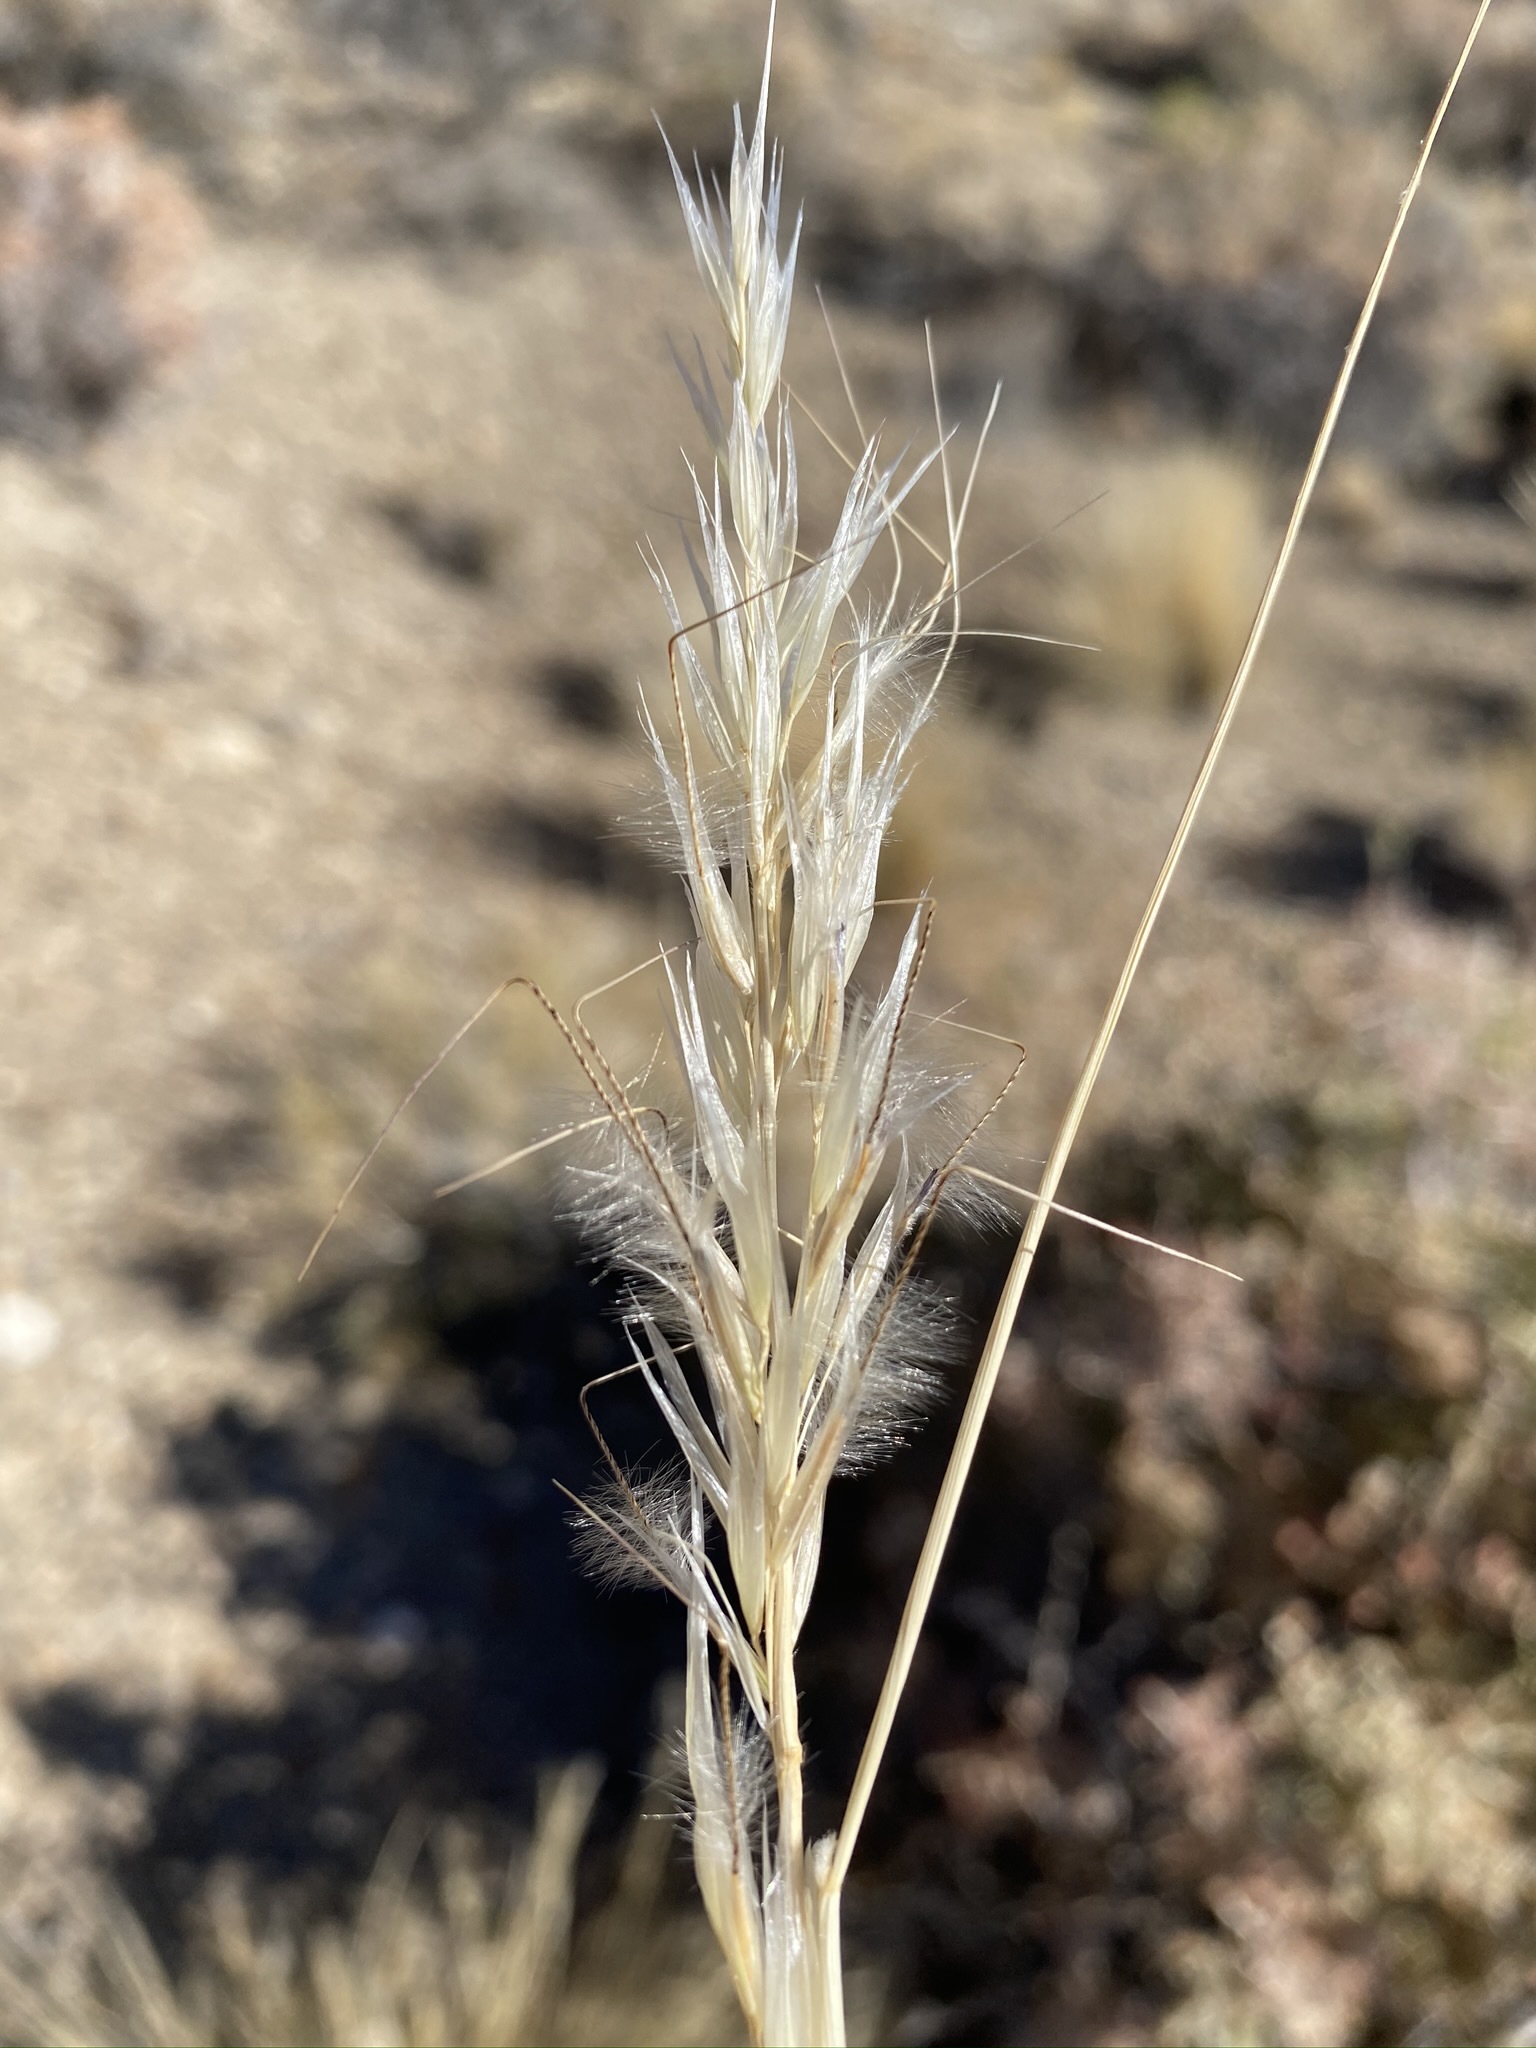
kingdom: Plantae
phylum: Tracheophyta
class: Liliopsida
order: Poales
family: Poaceae
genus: Pappostipa
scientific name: Pappostipa speciosa
